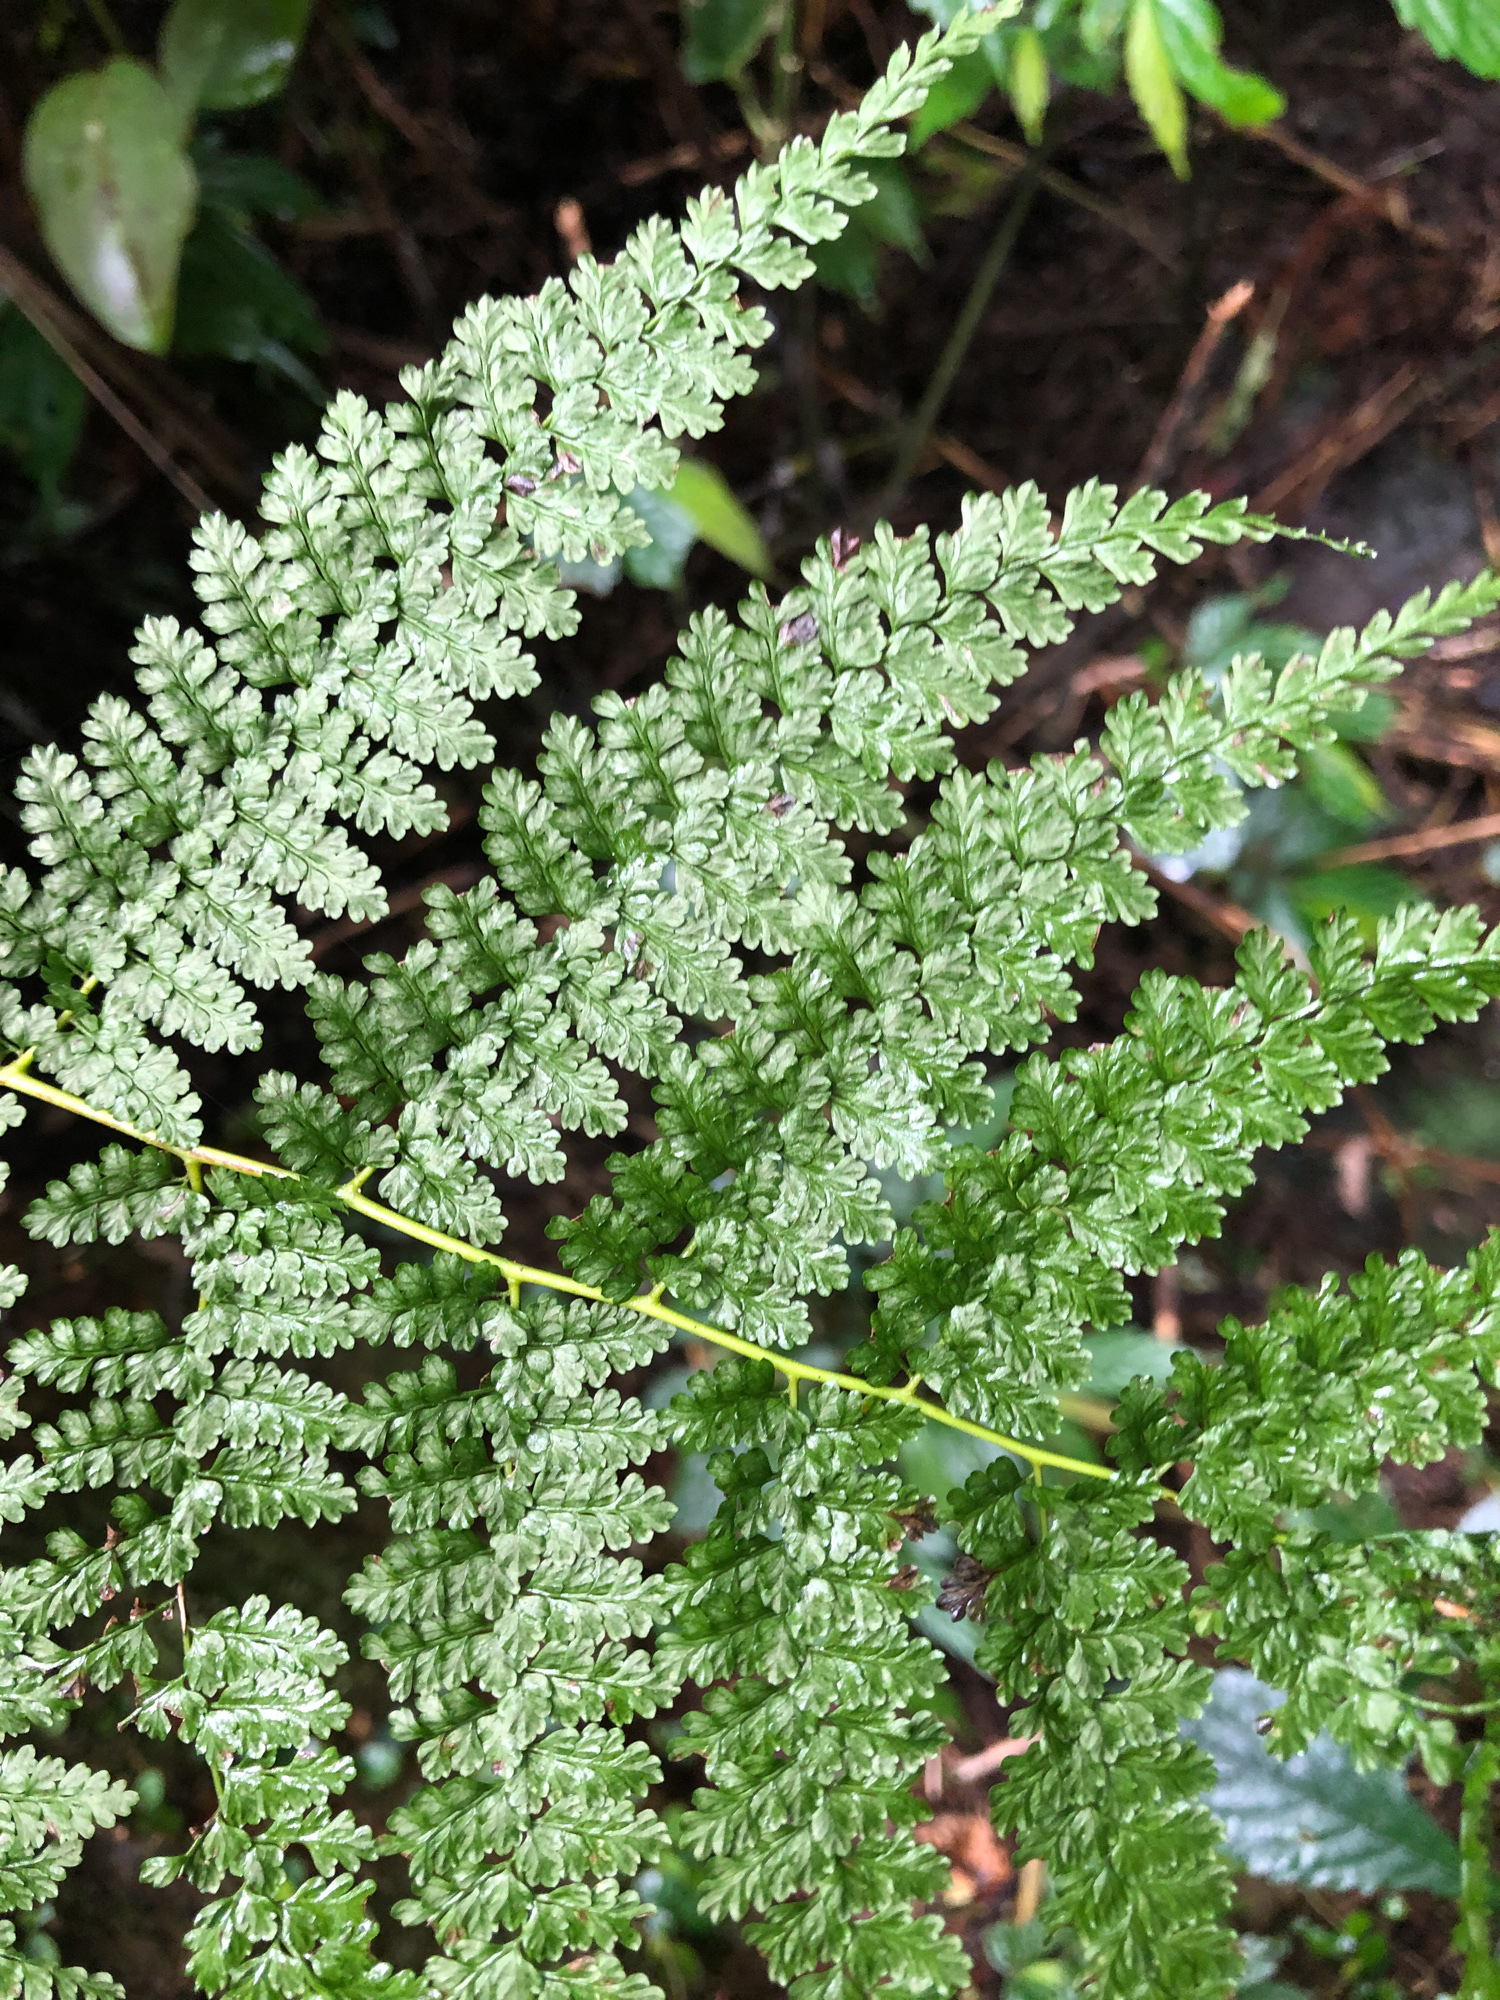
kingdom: Plantae
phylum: Tracheophyta
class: Polypodiopsida
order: Polypodiales
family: Dennstaedtiaceae
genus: Monachosorum
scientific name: Monachosorum henryi
